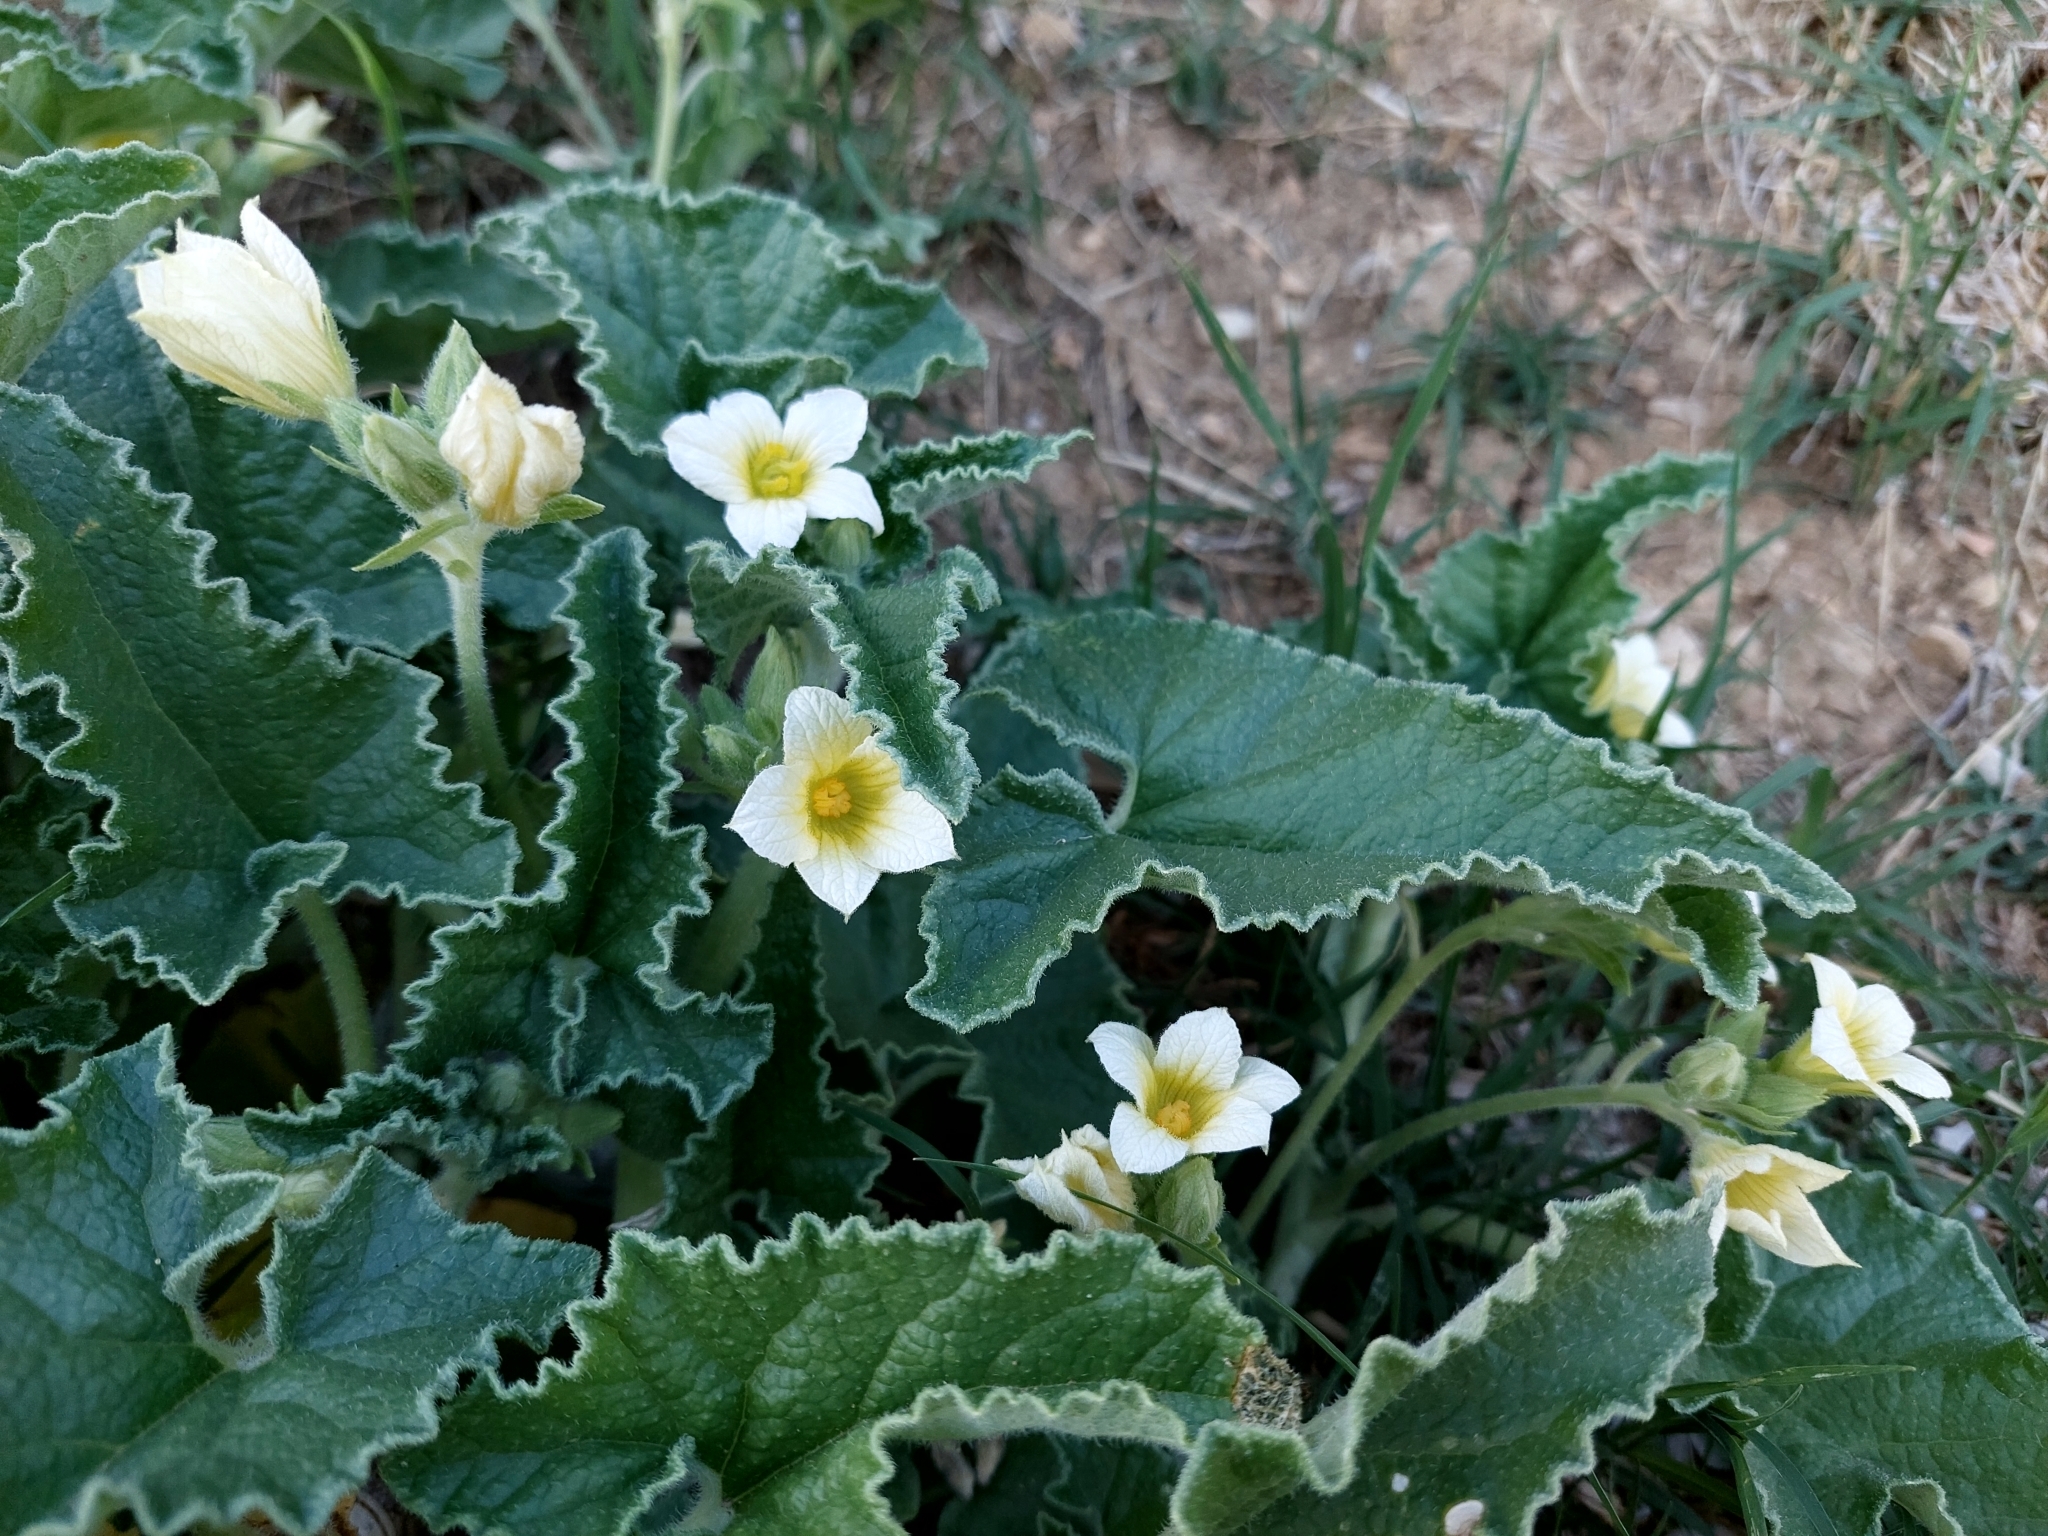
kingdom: Plantae
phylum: Tracheophyta
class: Magnoliopsida
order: Cucurbitales
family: Cucurbitaceae
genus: Ecballium
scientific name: Ecballium elaterium
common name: Squirting cucumber
